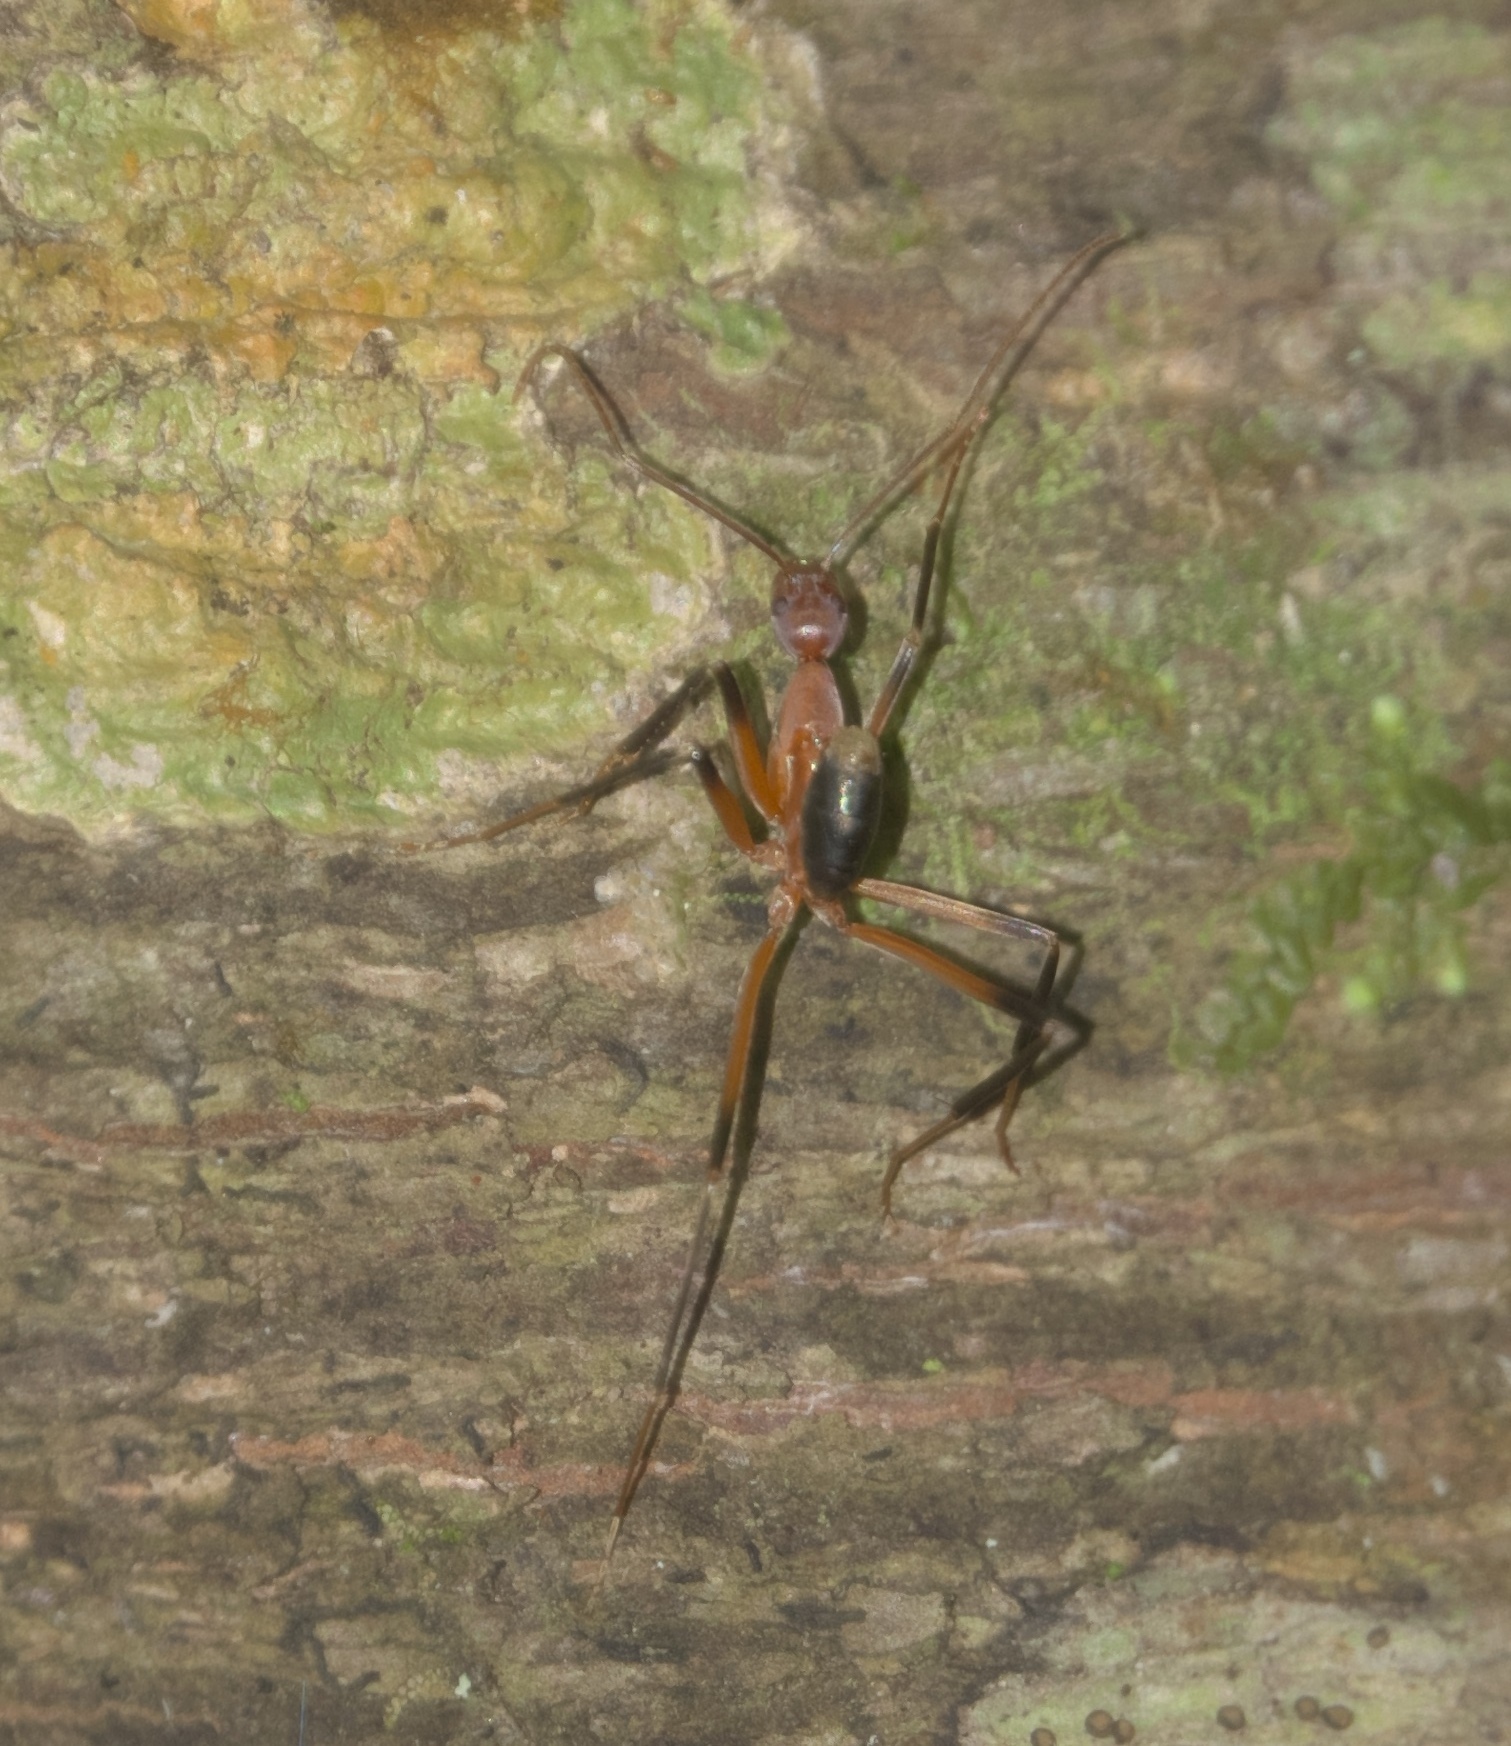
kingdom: Animalia
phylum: Arthropoda
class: Insecta
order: Hymenoptera
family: Formicidae
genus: Leptomyrmex
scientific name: Leptomyrmex cnemidatus
